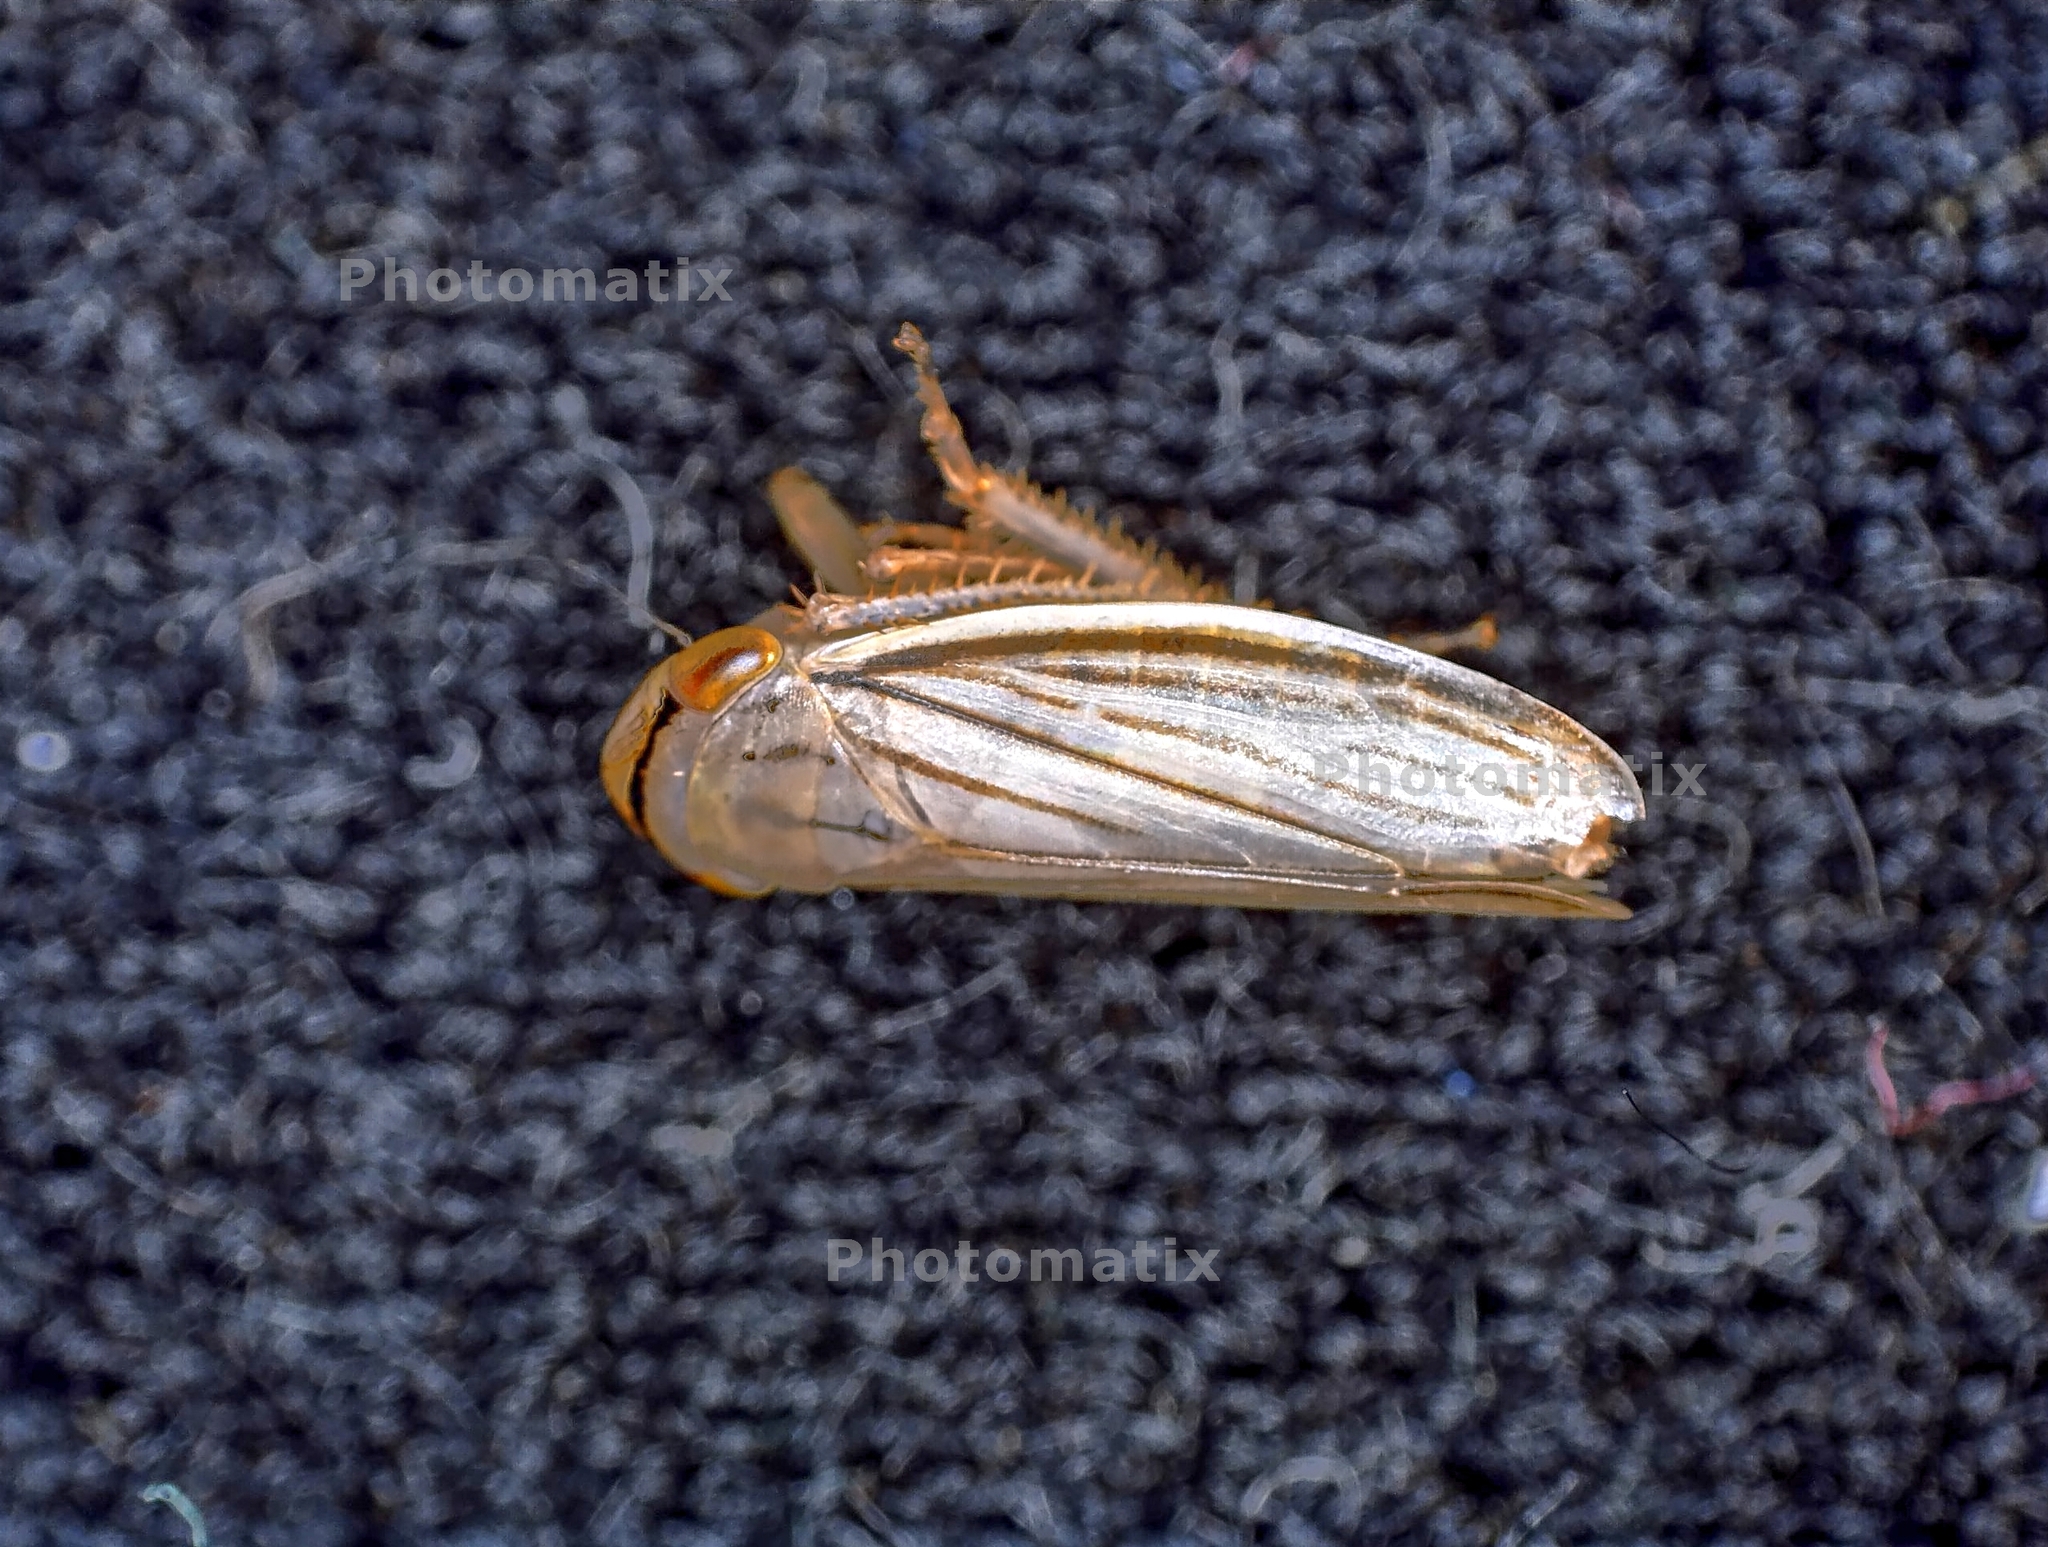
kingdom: Animalia
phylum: Arthropoda
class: Insecta
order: Hemiptera
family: Cicadellidae
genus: Athysanus
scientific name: Athysanus argentarius
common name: Silver leafhopper
